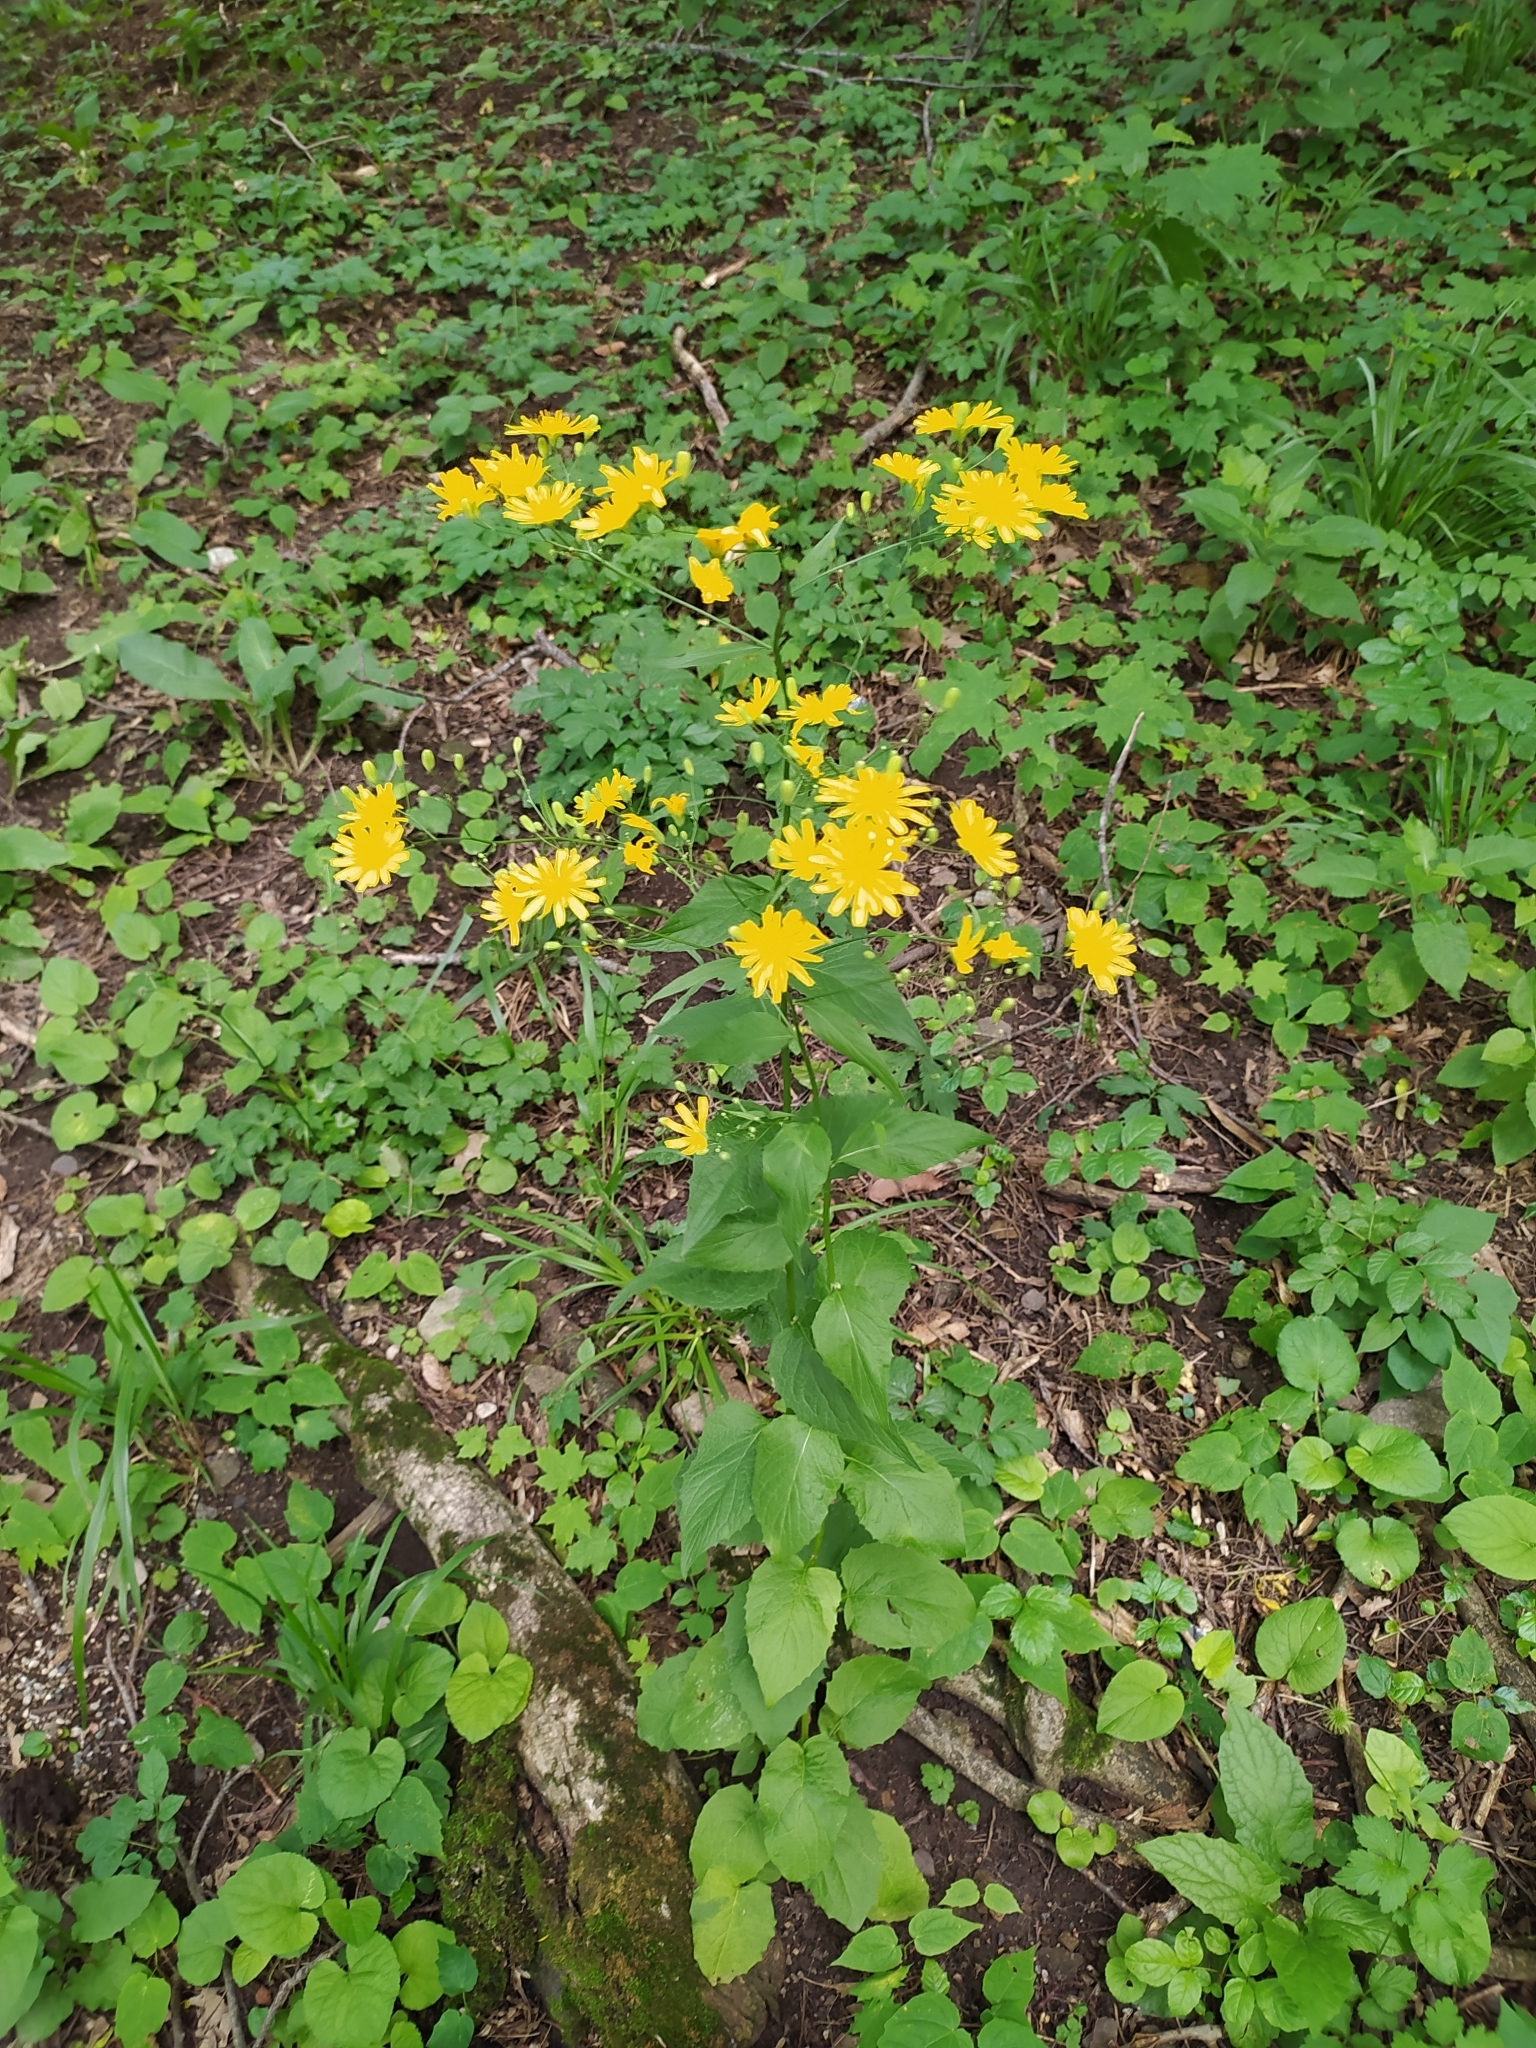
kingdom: Plantae
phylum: Tracheophyta
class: Magnoliopsida
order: Asterales
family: Asteraceae
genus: Lapsana
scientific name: Lapsana communis
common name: Nipplewort
